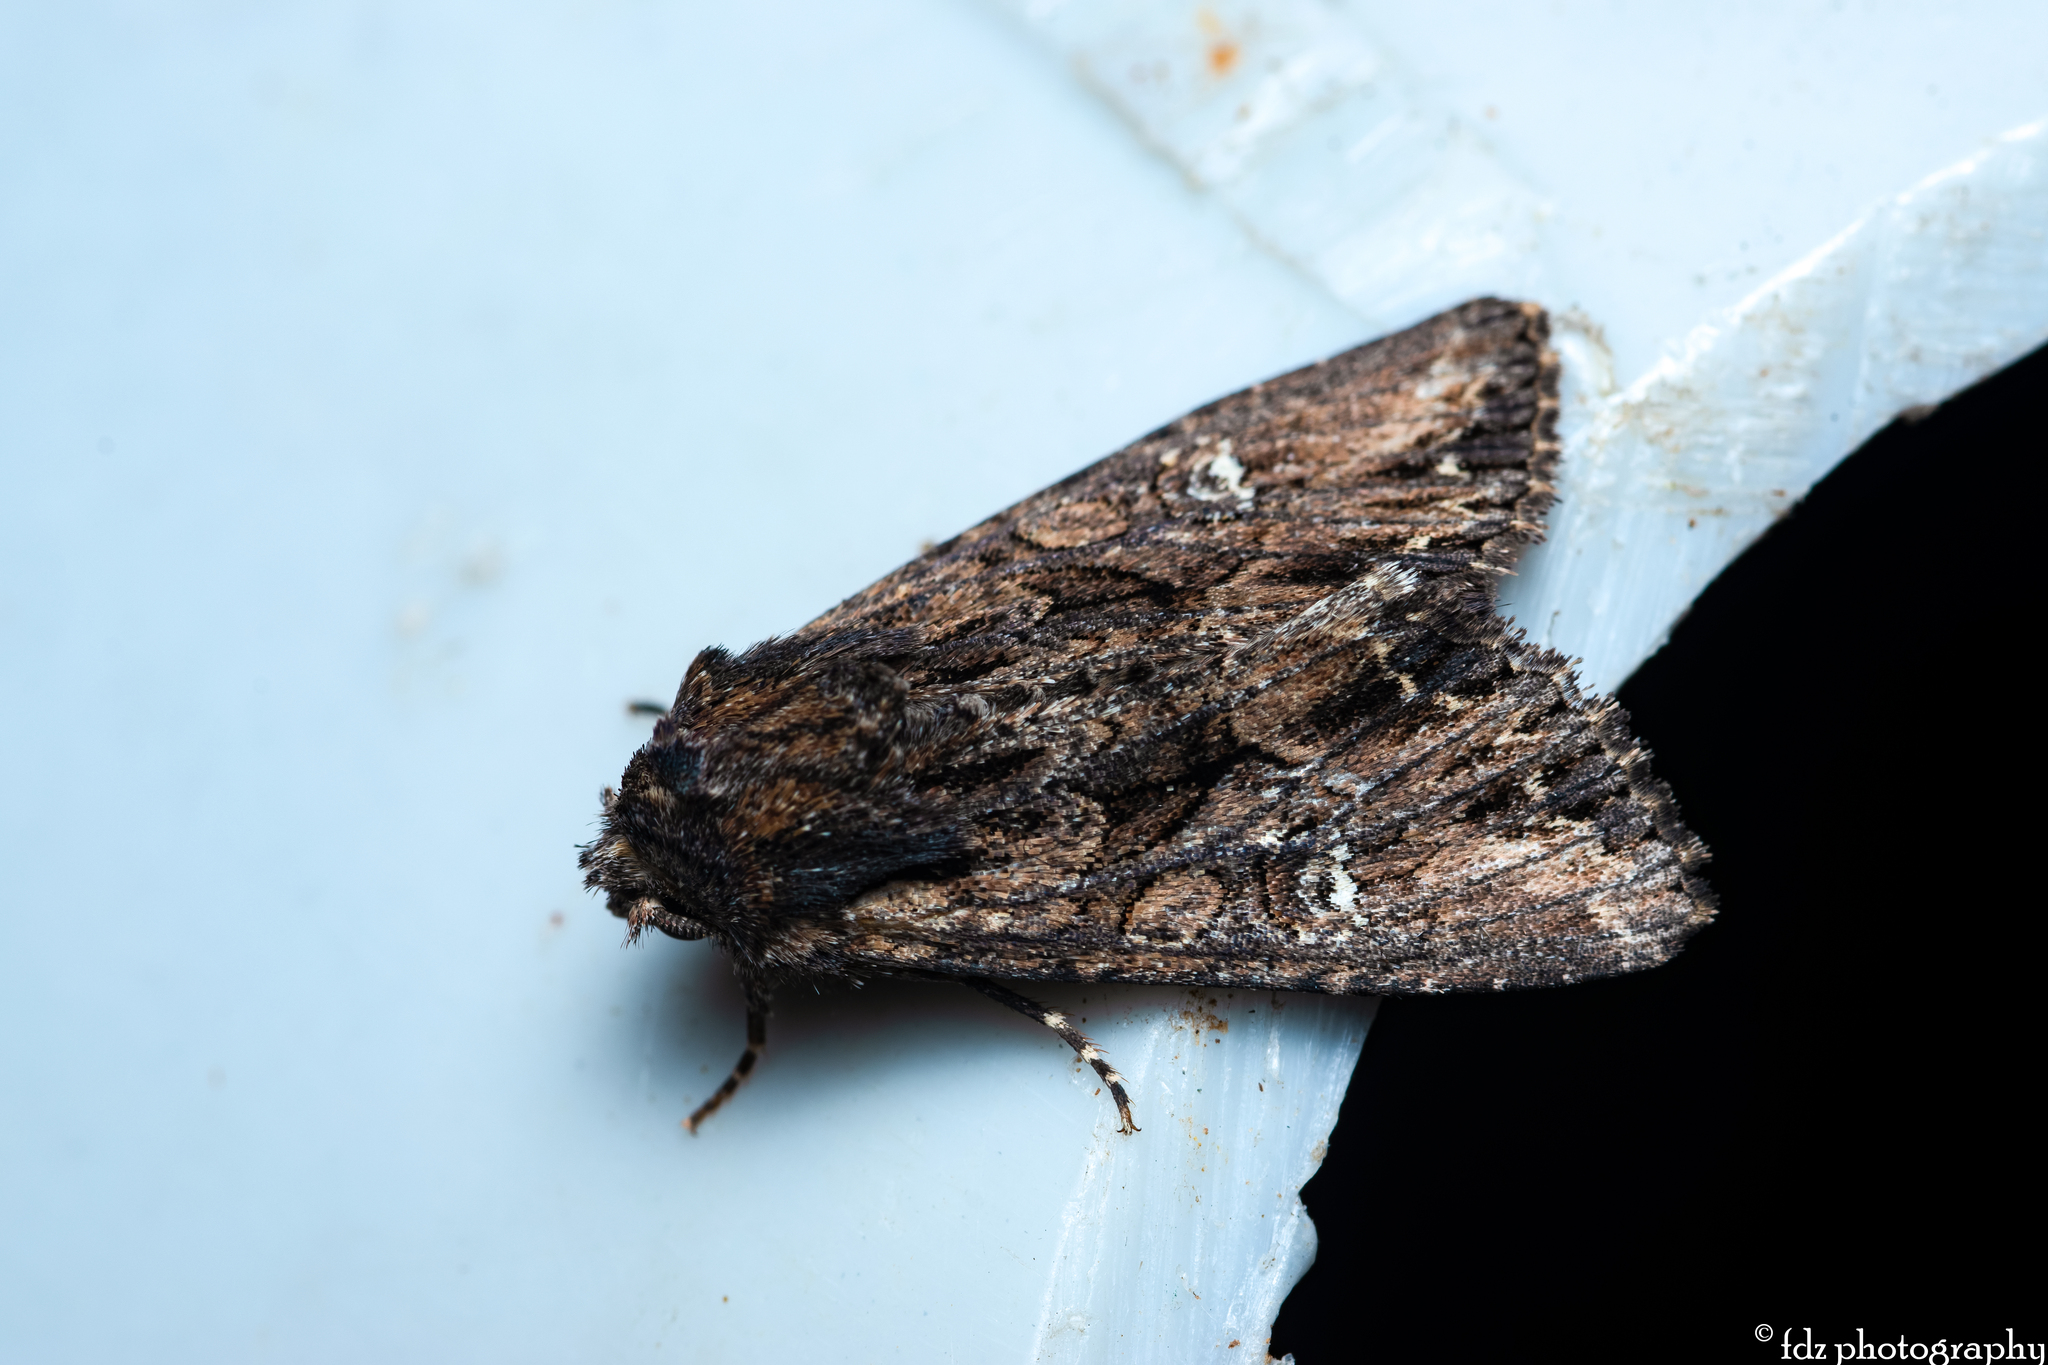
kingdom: Animalia
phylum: Arthropoda
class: Insecta
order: Lepidoptera
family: Noctuidae
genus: Mniotype
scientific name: Mniotype occidentalis
